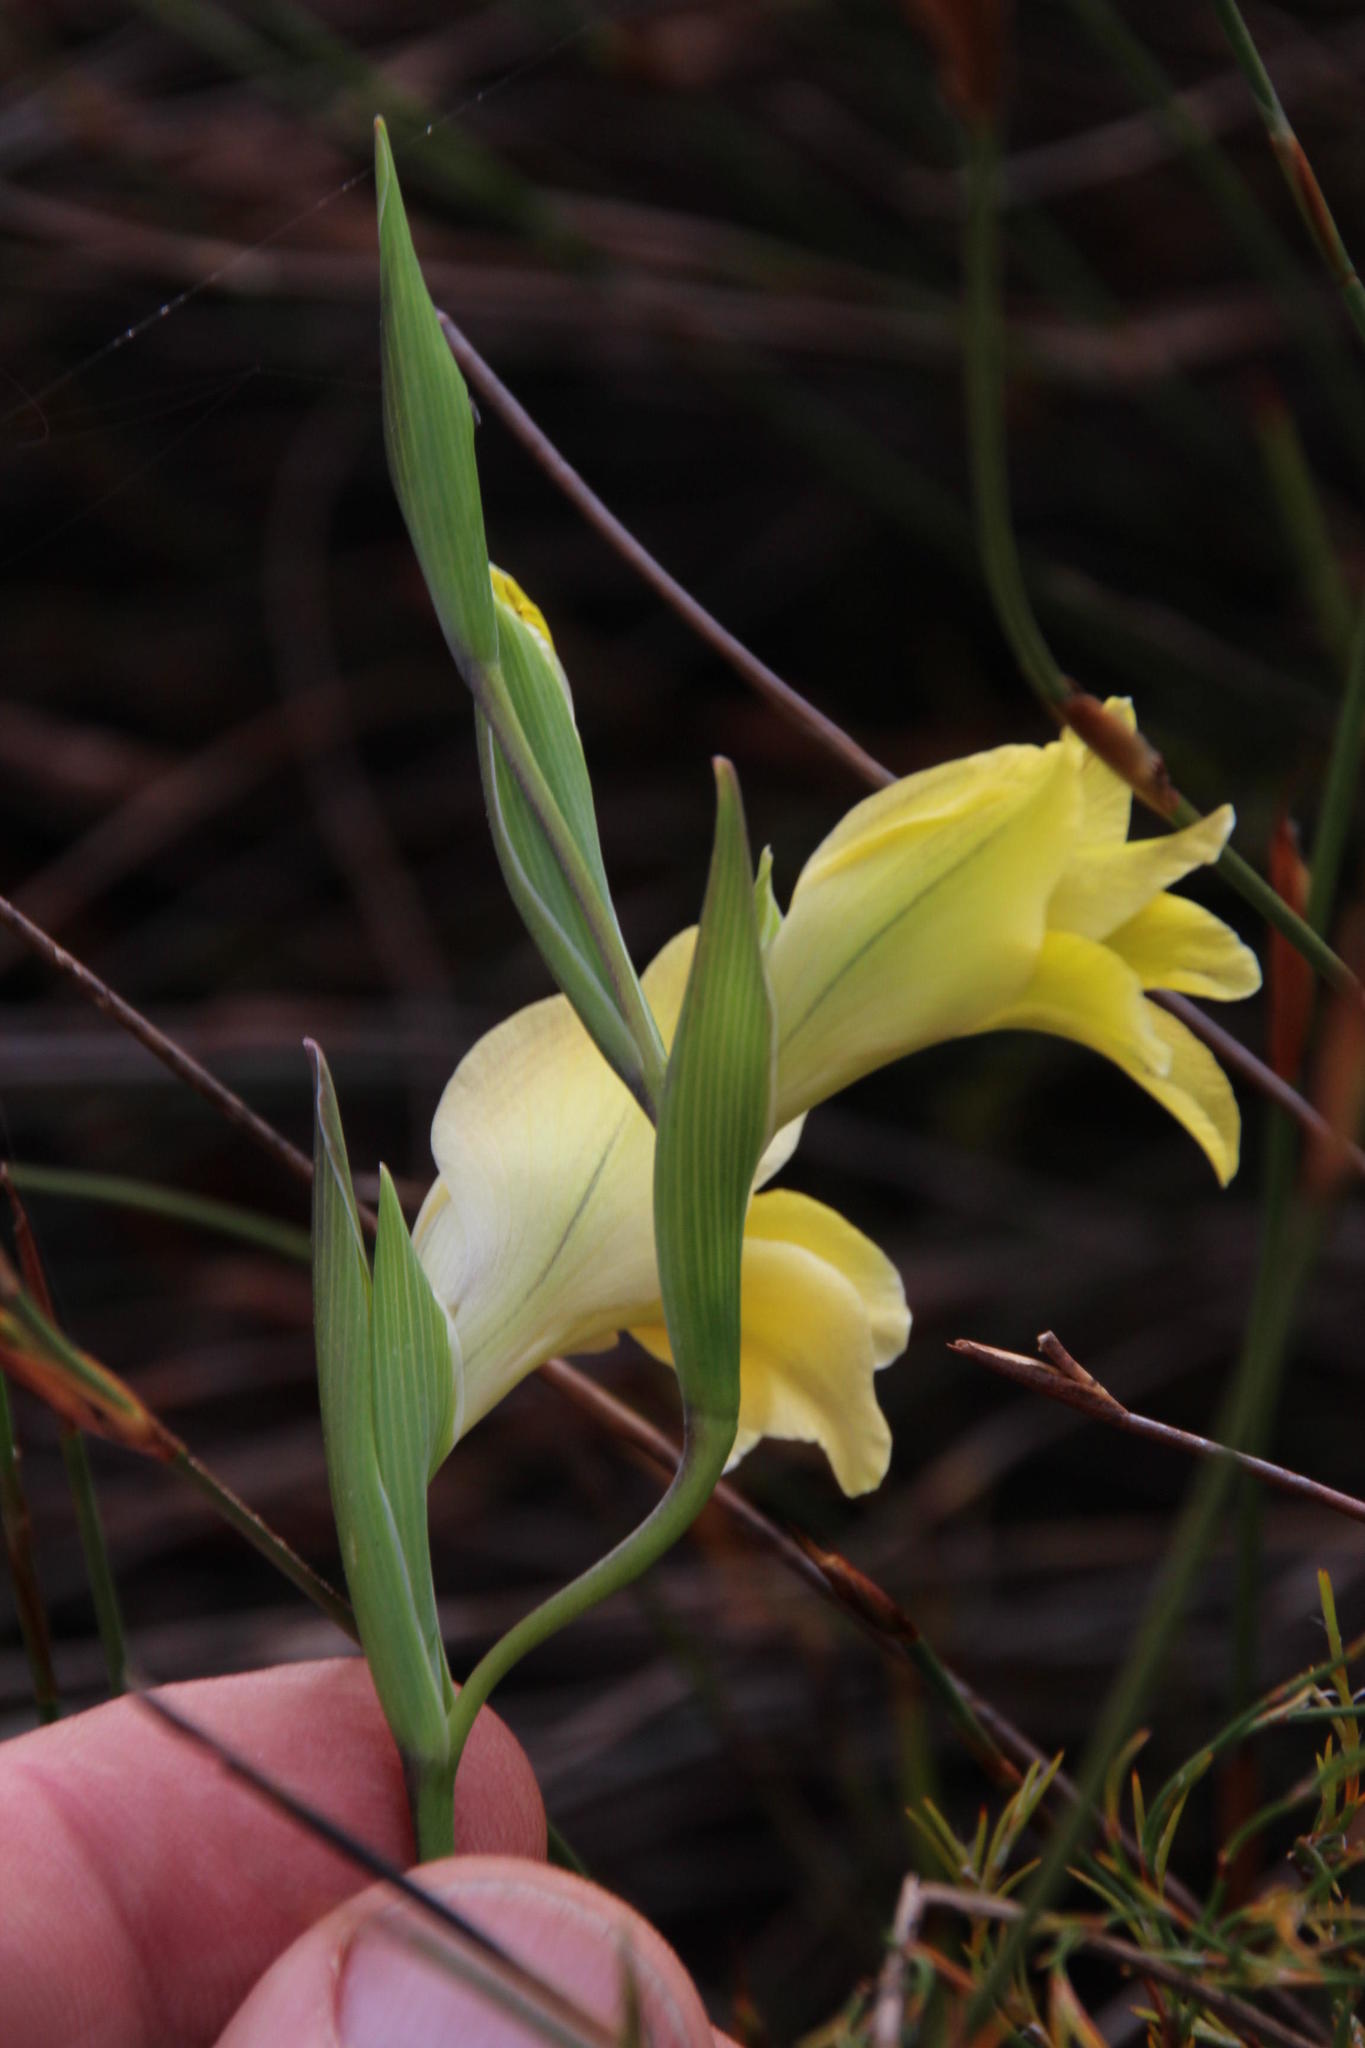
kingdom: Plantae
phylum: Tracheophyta
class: Liliopsida
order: Asparagales
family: Iridaceae
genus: Gladiolus
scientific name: Gladiolus carinatus
